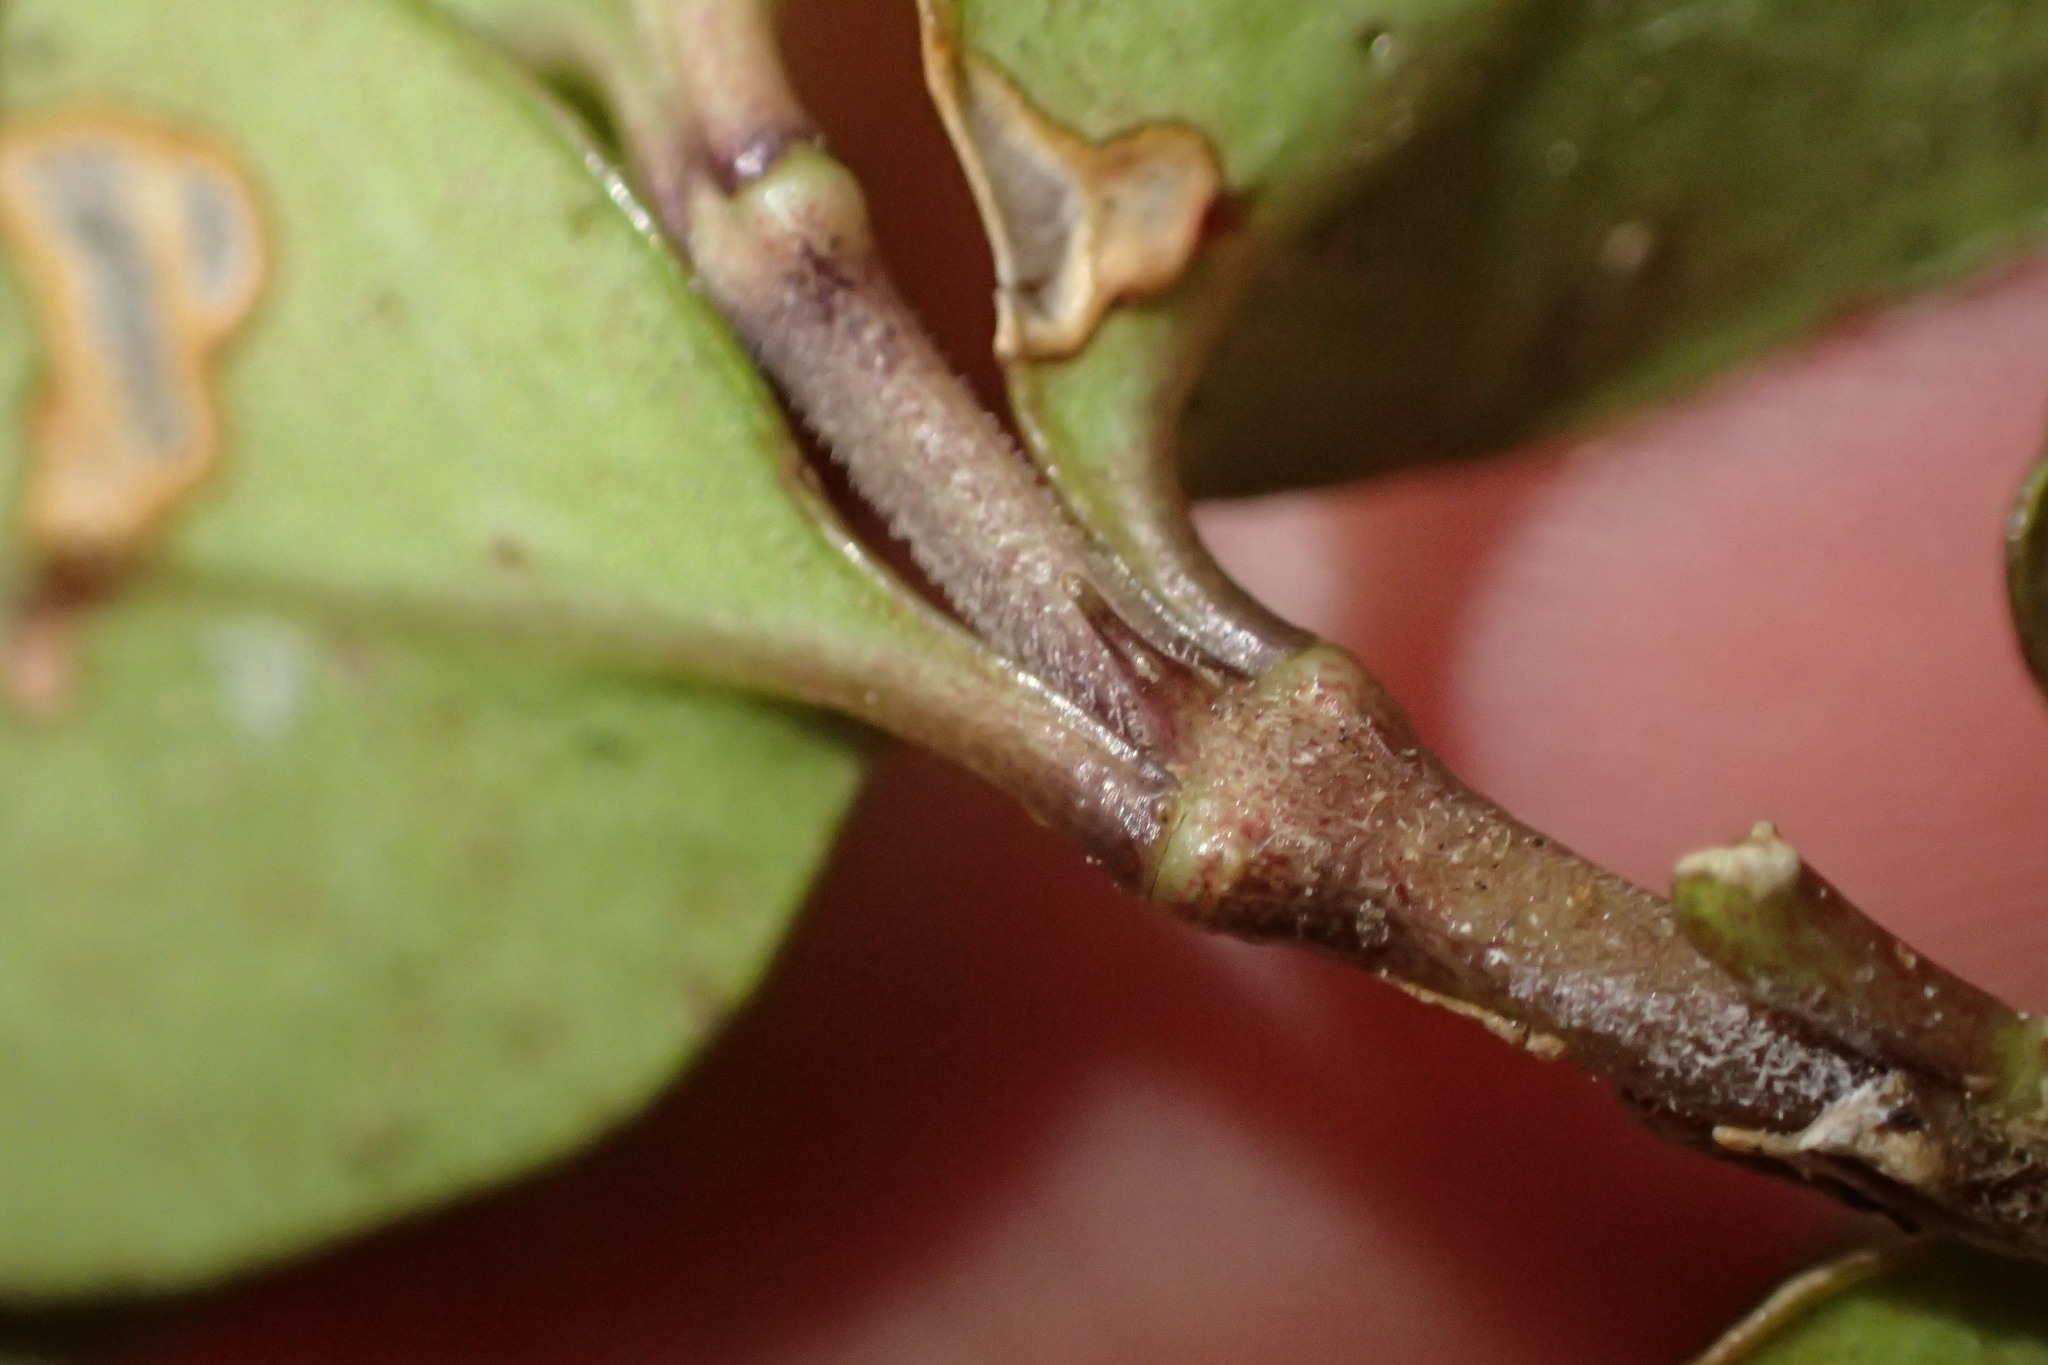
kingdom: Plantae
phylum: Tracheophyta
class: Magnoliopsida
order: Gentianales
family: Rubiaceae
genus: Coprosma
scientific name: Coprosma colensoi
